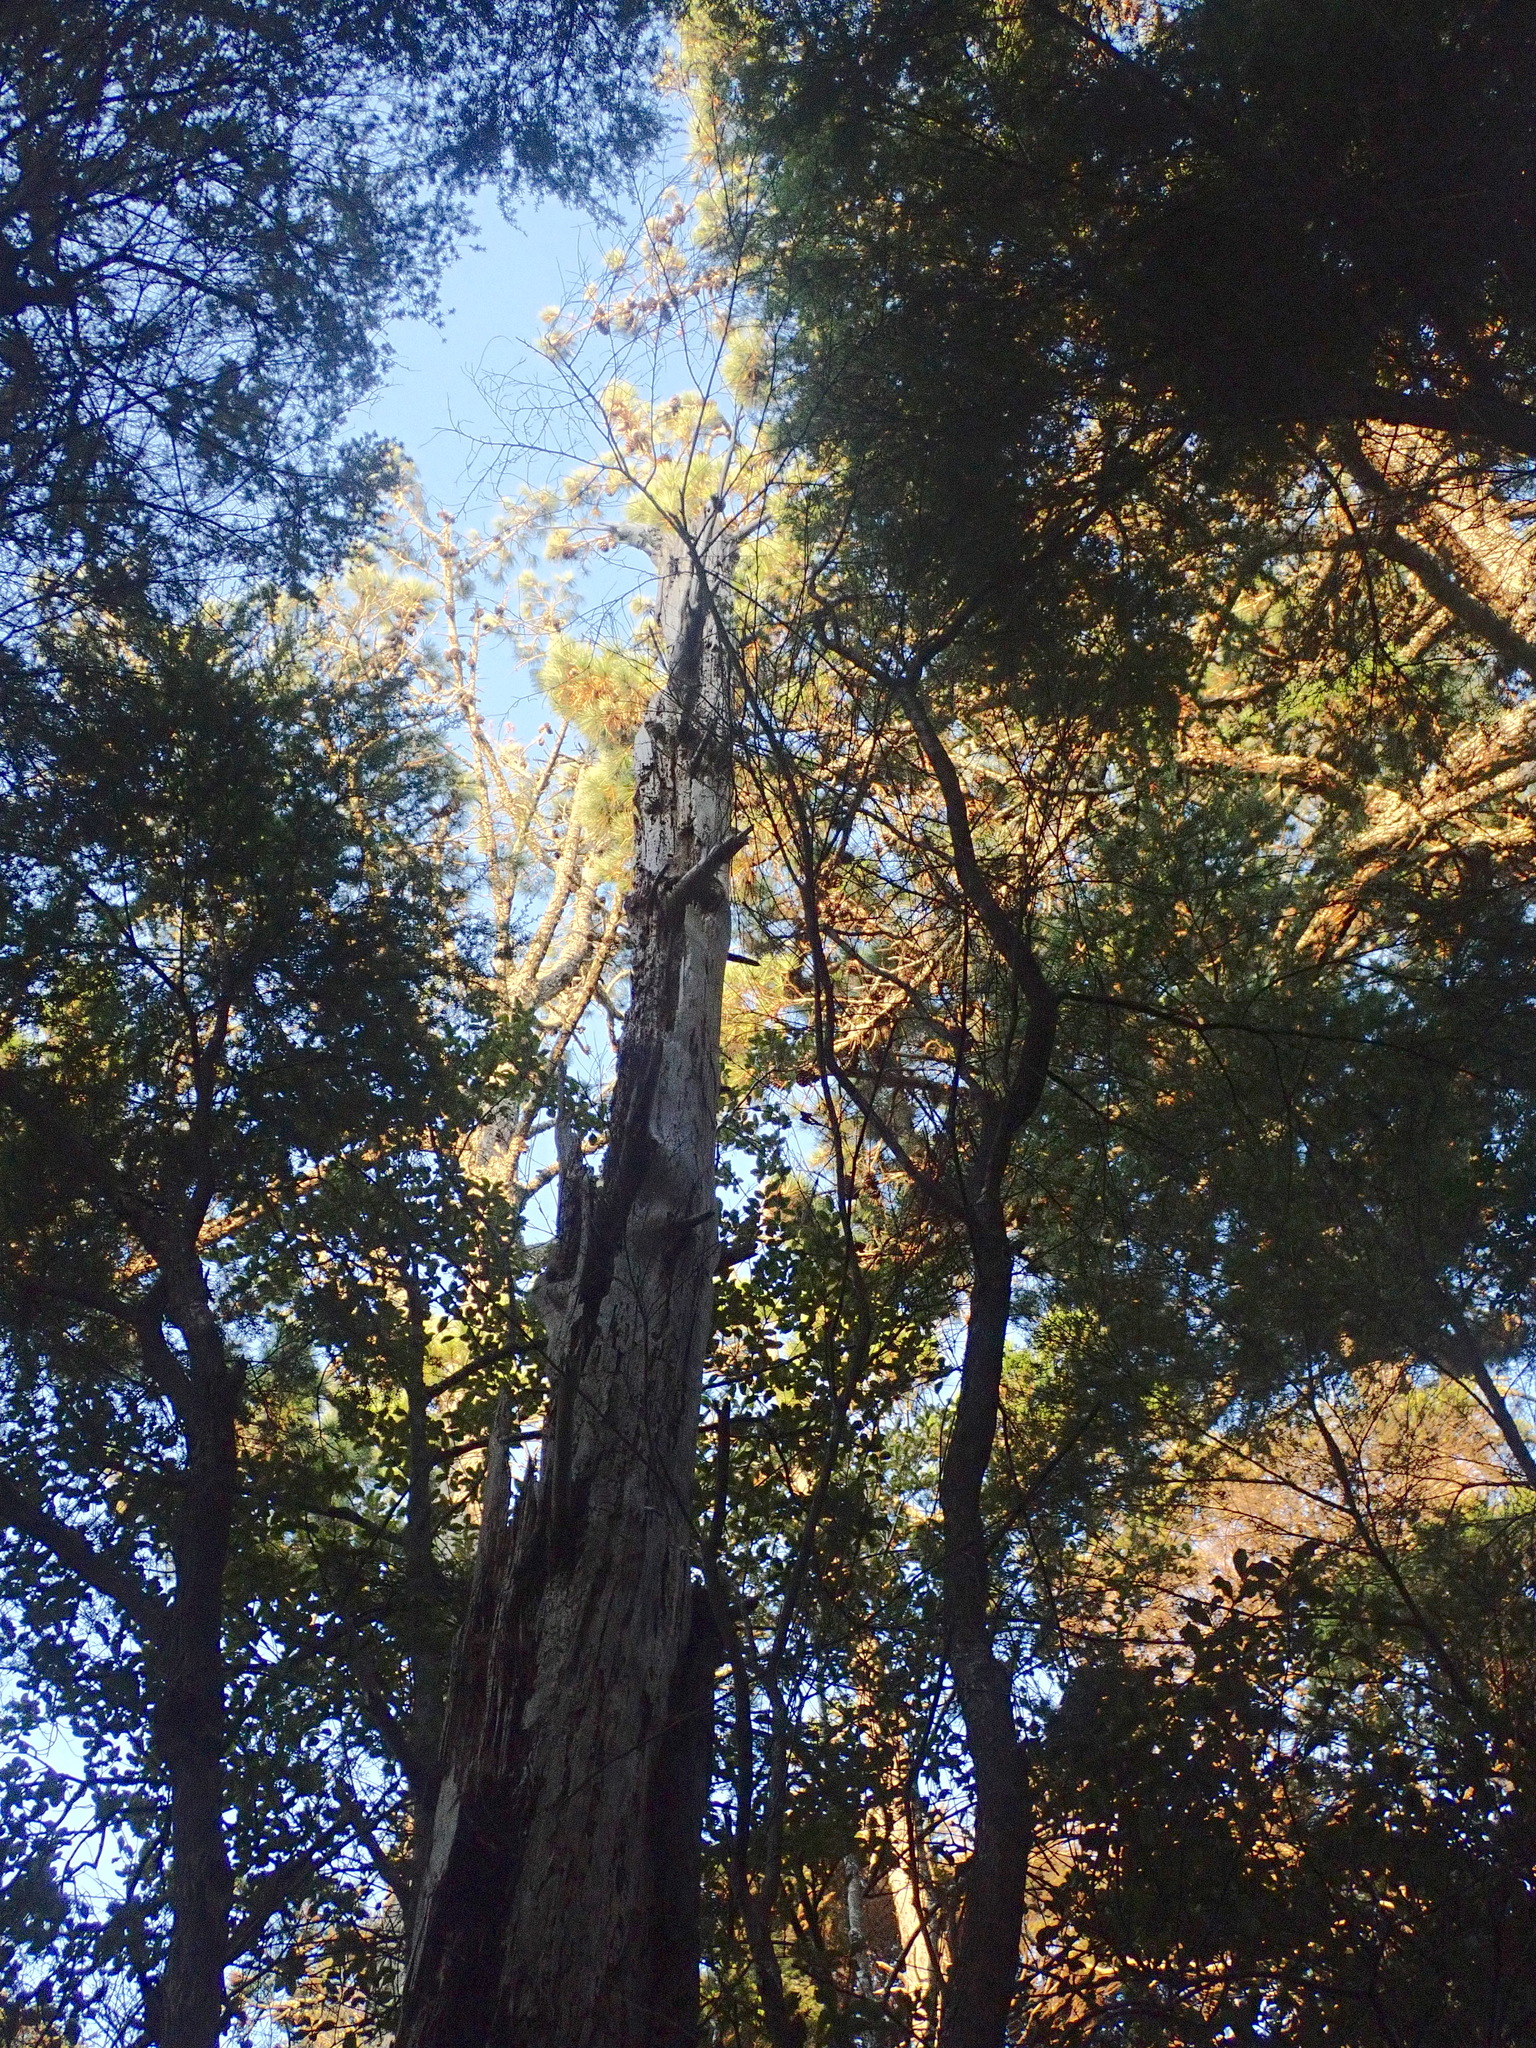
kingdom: Plantae
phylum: Tracheophyta
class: Polypodiopsida
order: Cyatheales
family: Cyatheaceae
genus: Alsophila
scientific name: Alsophila dealbata
